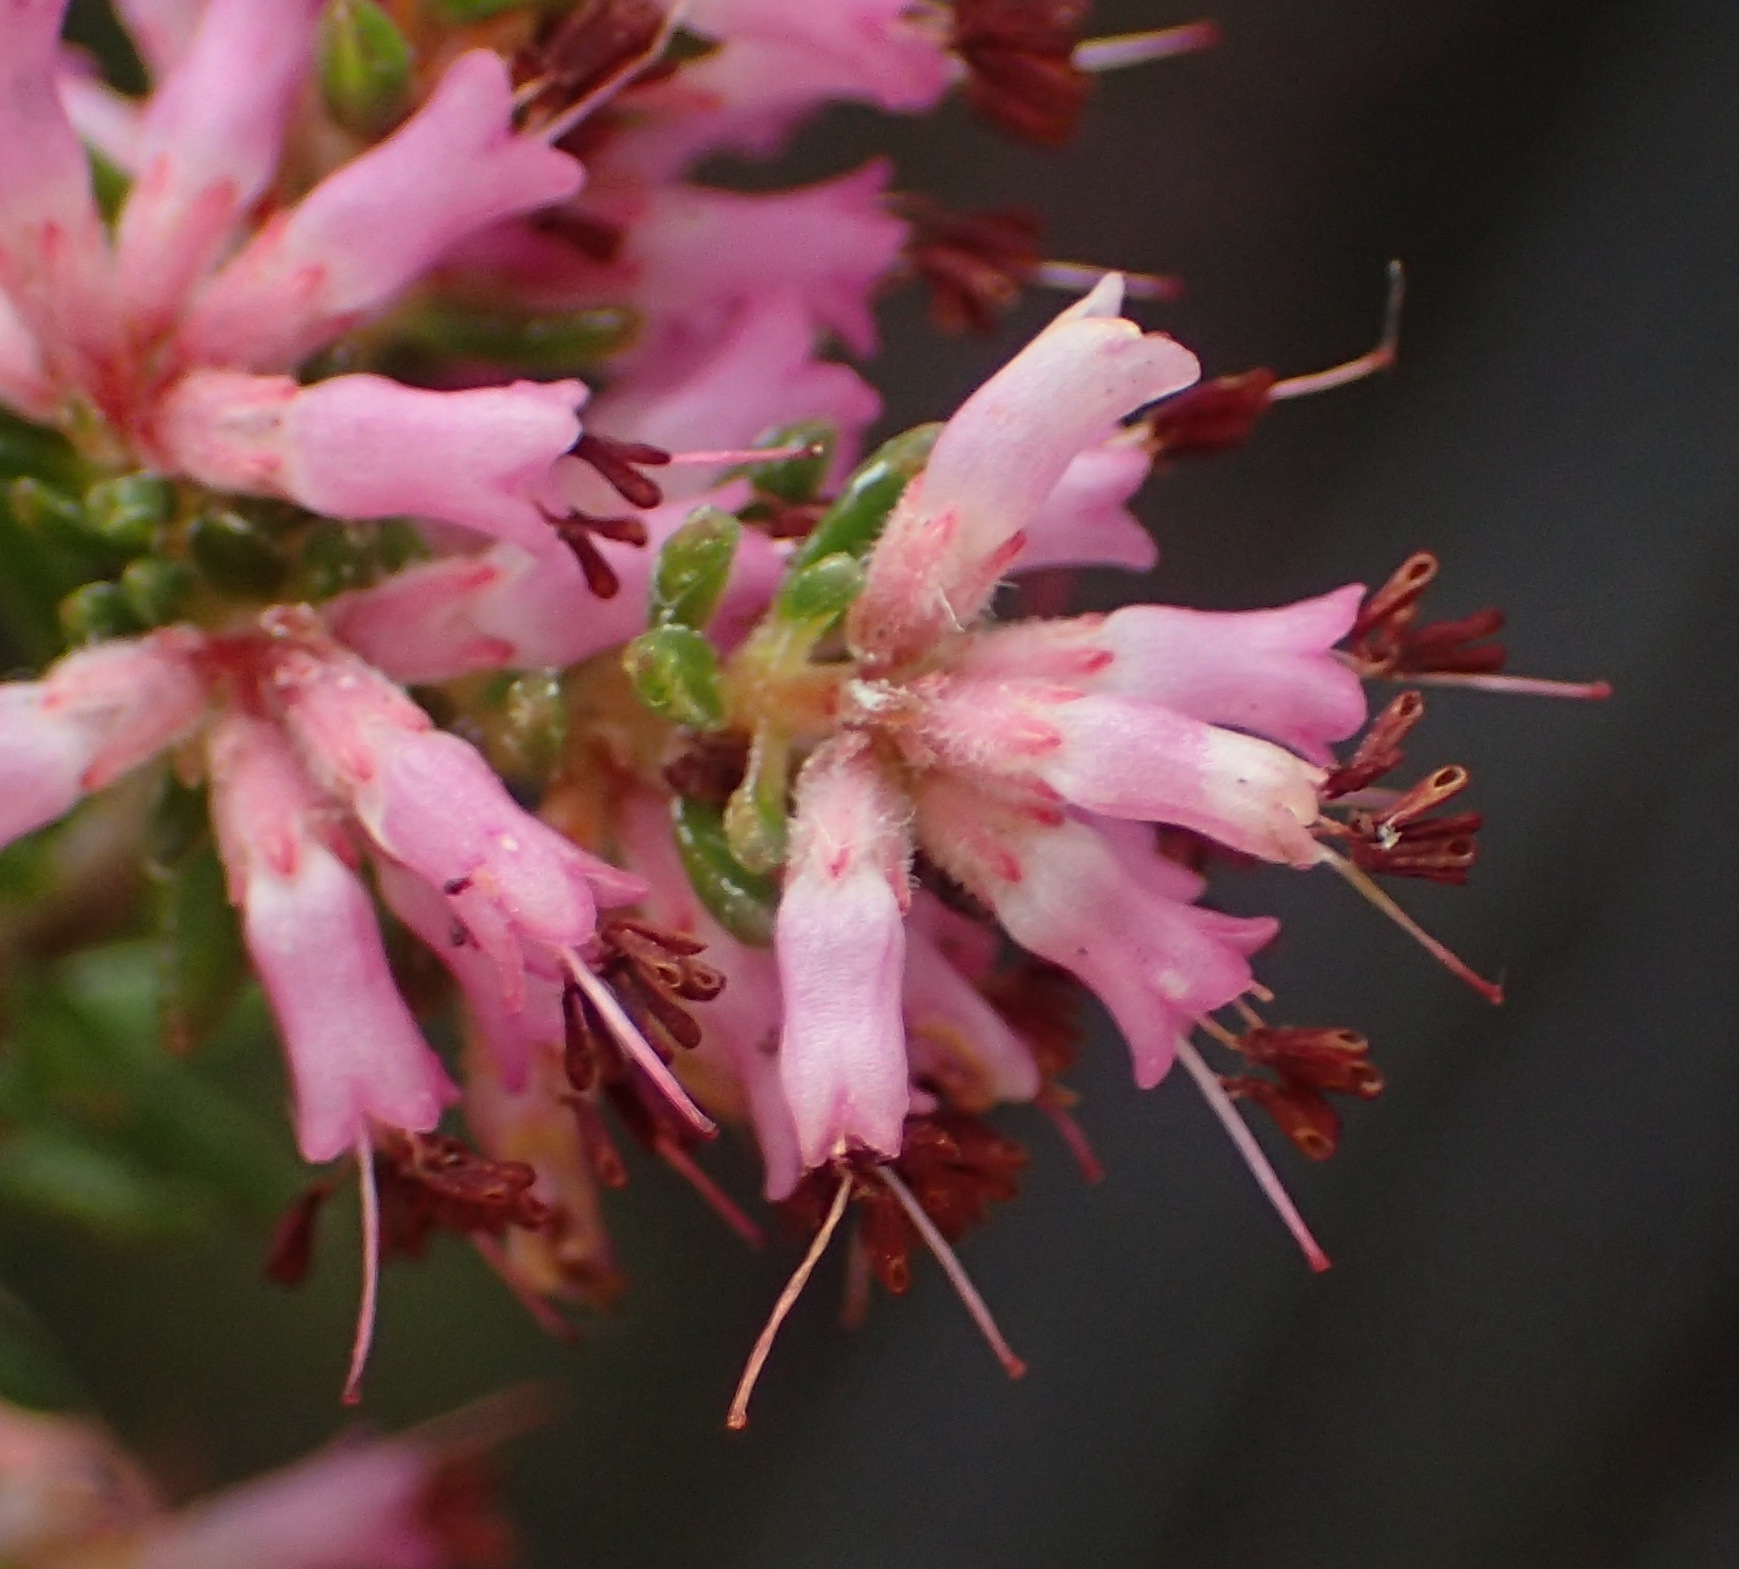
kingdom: Plantae
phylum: Tracheophyta
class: Magnoliopsida
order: Ericales
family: Ericaceae
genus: Erica
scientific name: Erica uberiflora
